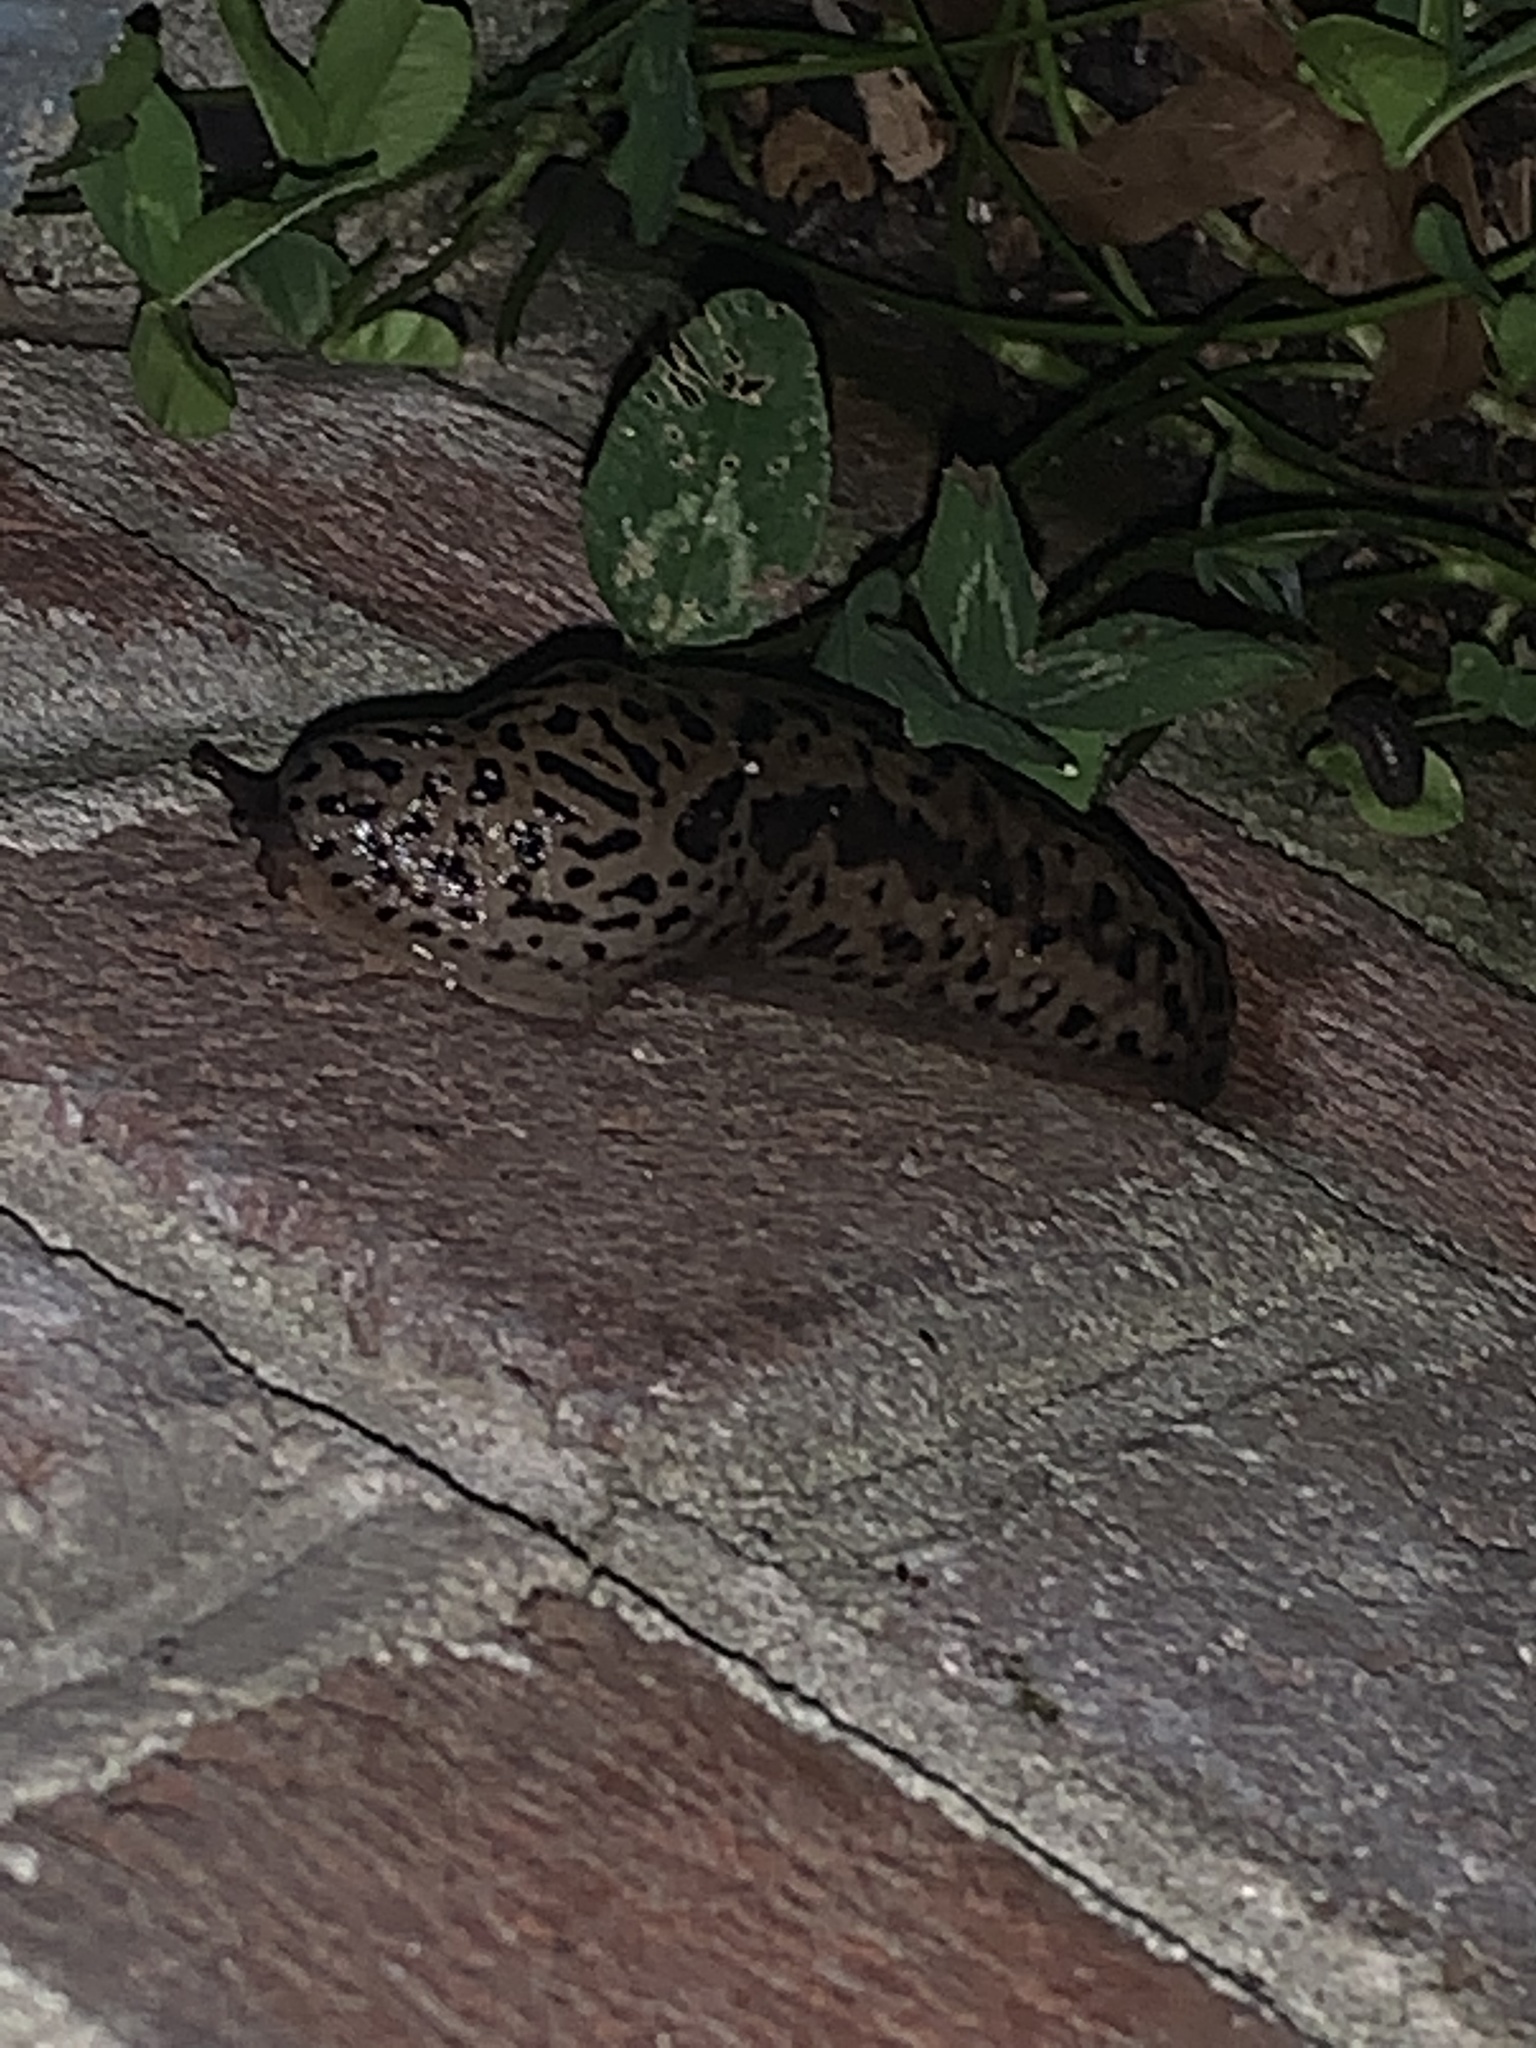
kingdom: Animalia
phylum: Mollusca
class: Gastropoda
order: Stylommatophora
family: Limacidae
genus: Limax
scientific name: Limax maximus
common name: Great grey slug
